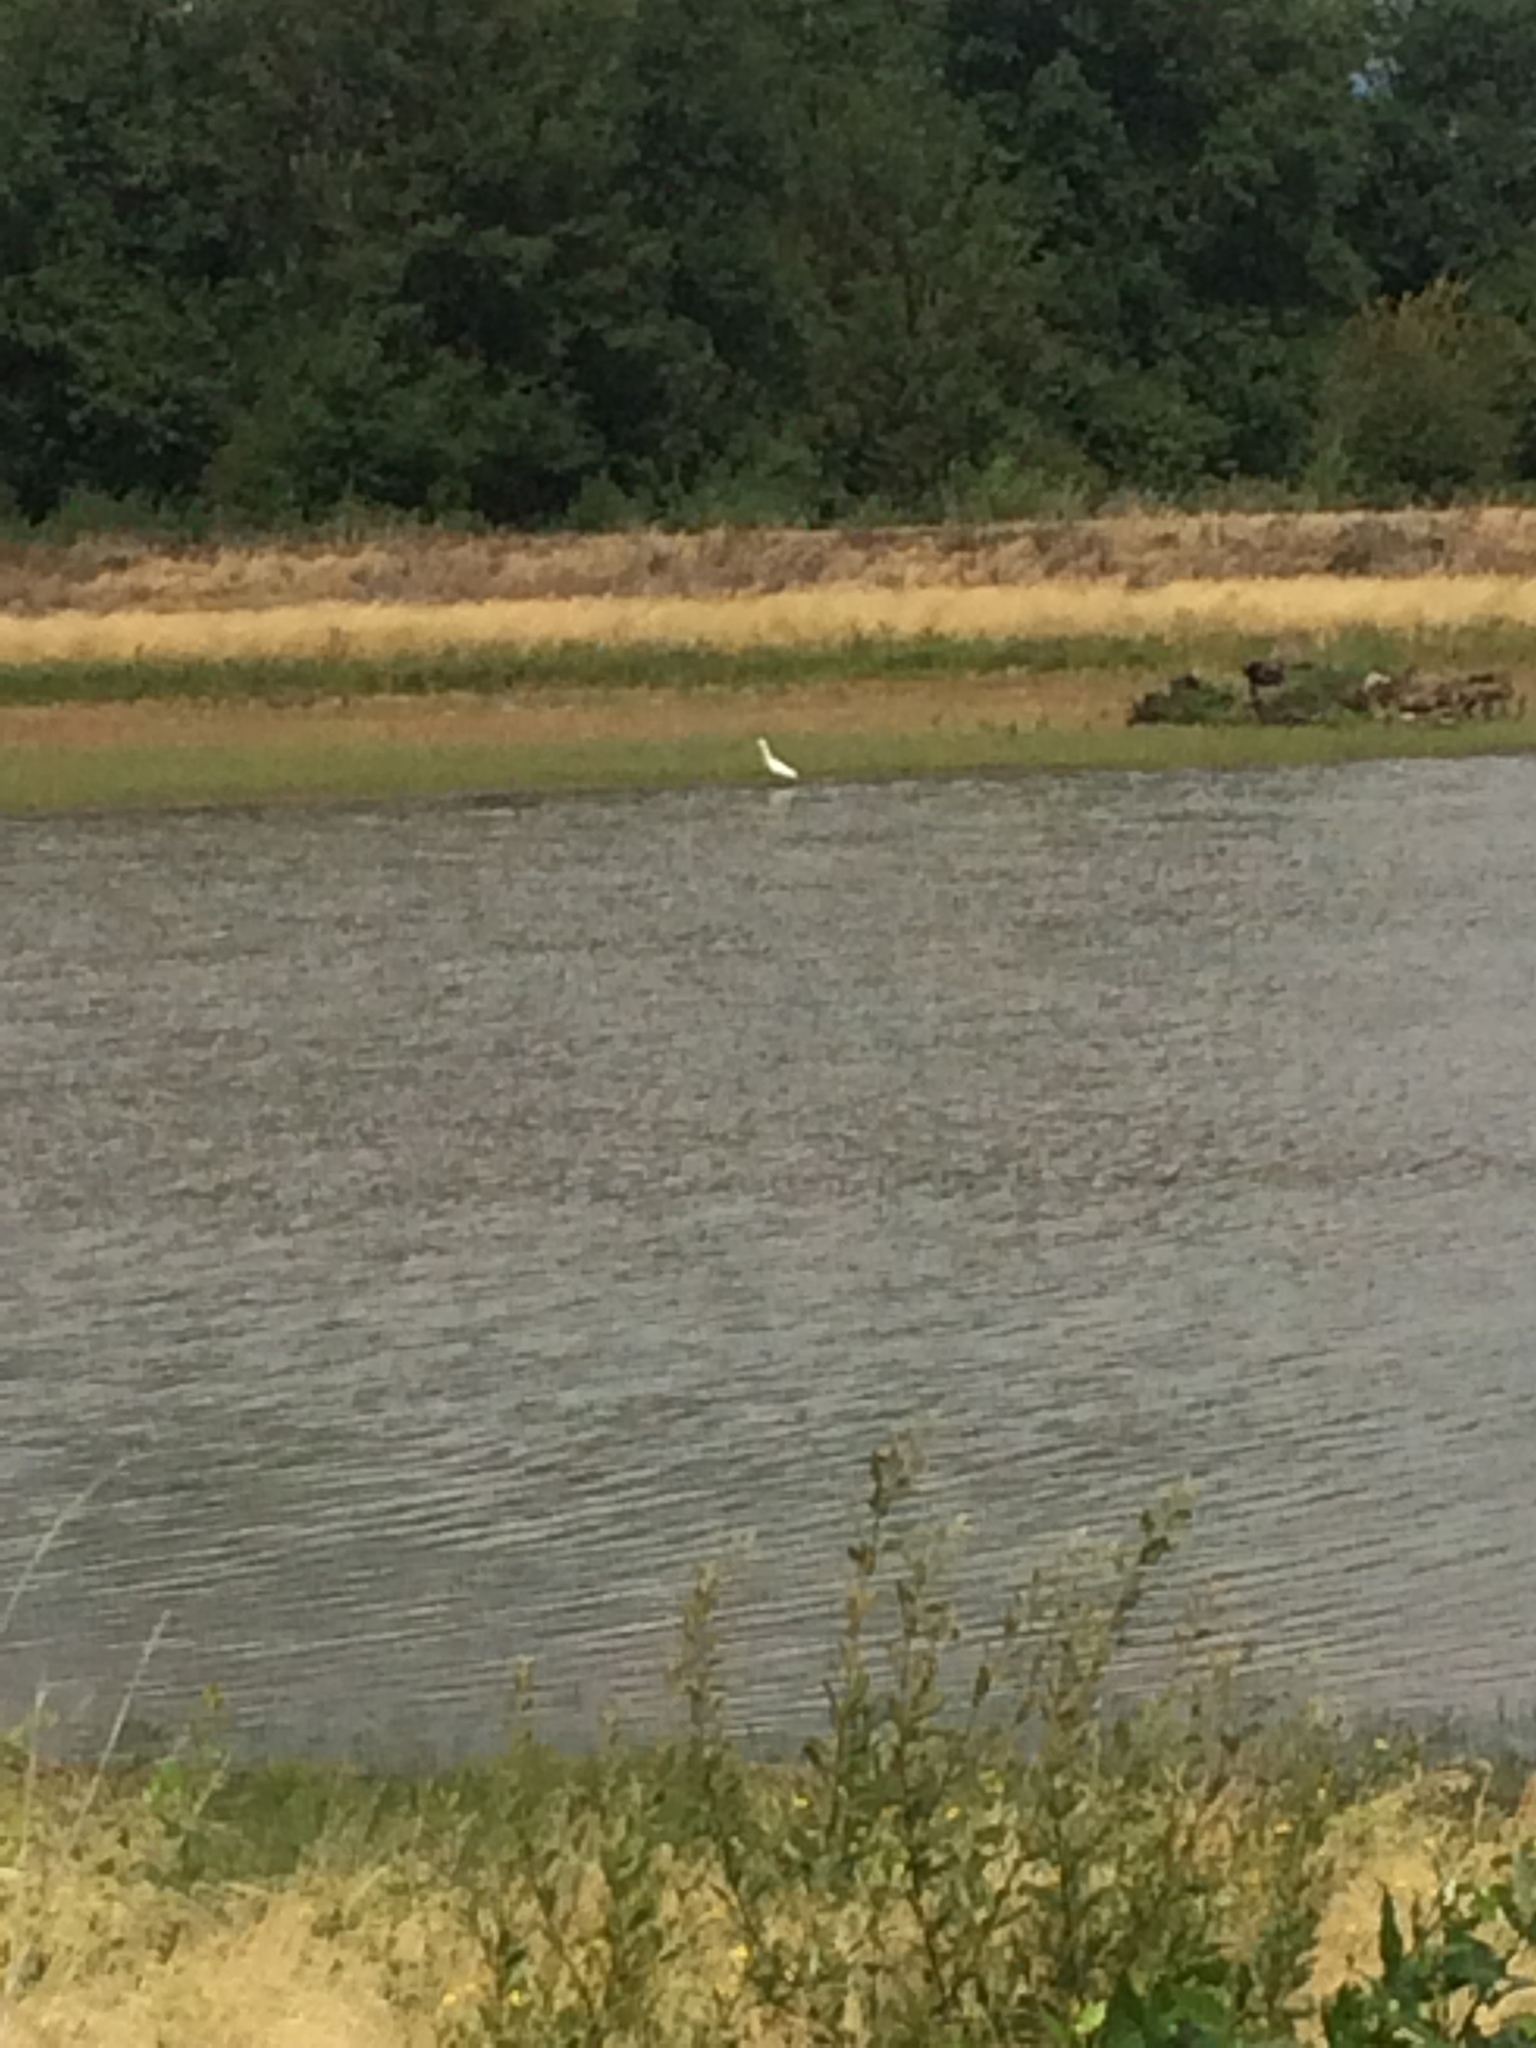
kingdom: Animalia
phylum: Chordata
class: Aves
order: Pelecaniformes
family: Ardeidae
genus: Ardea
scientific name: Ardea alba
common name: Great egret
